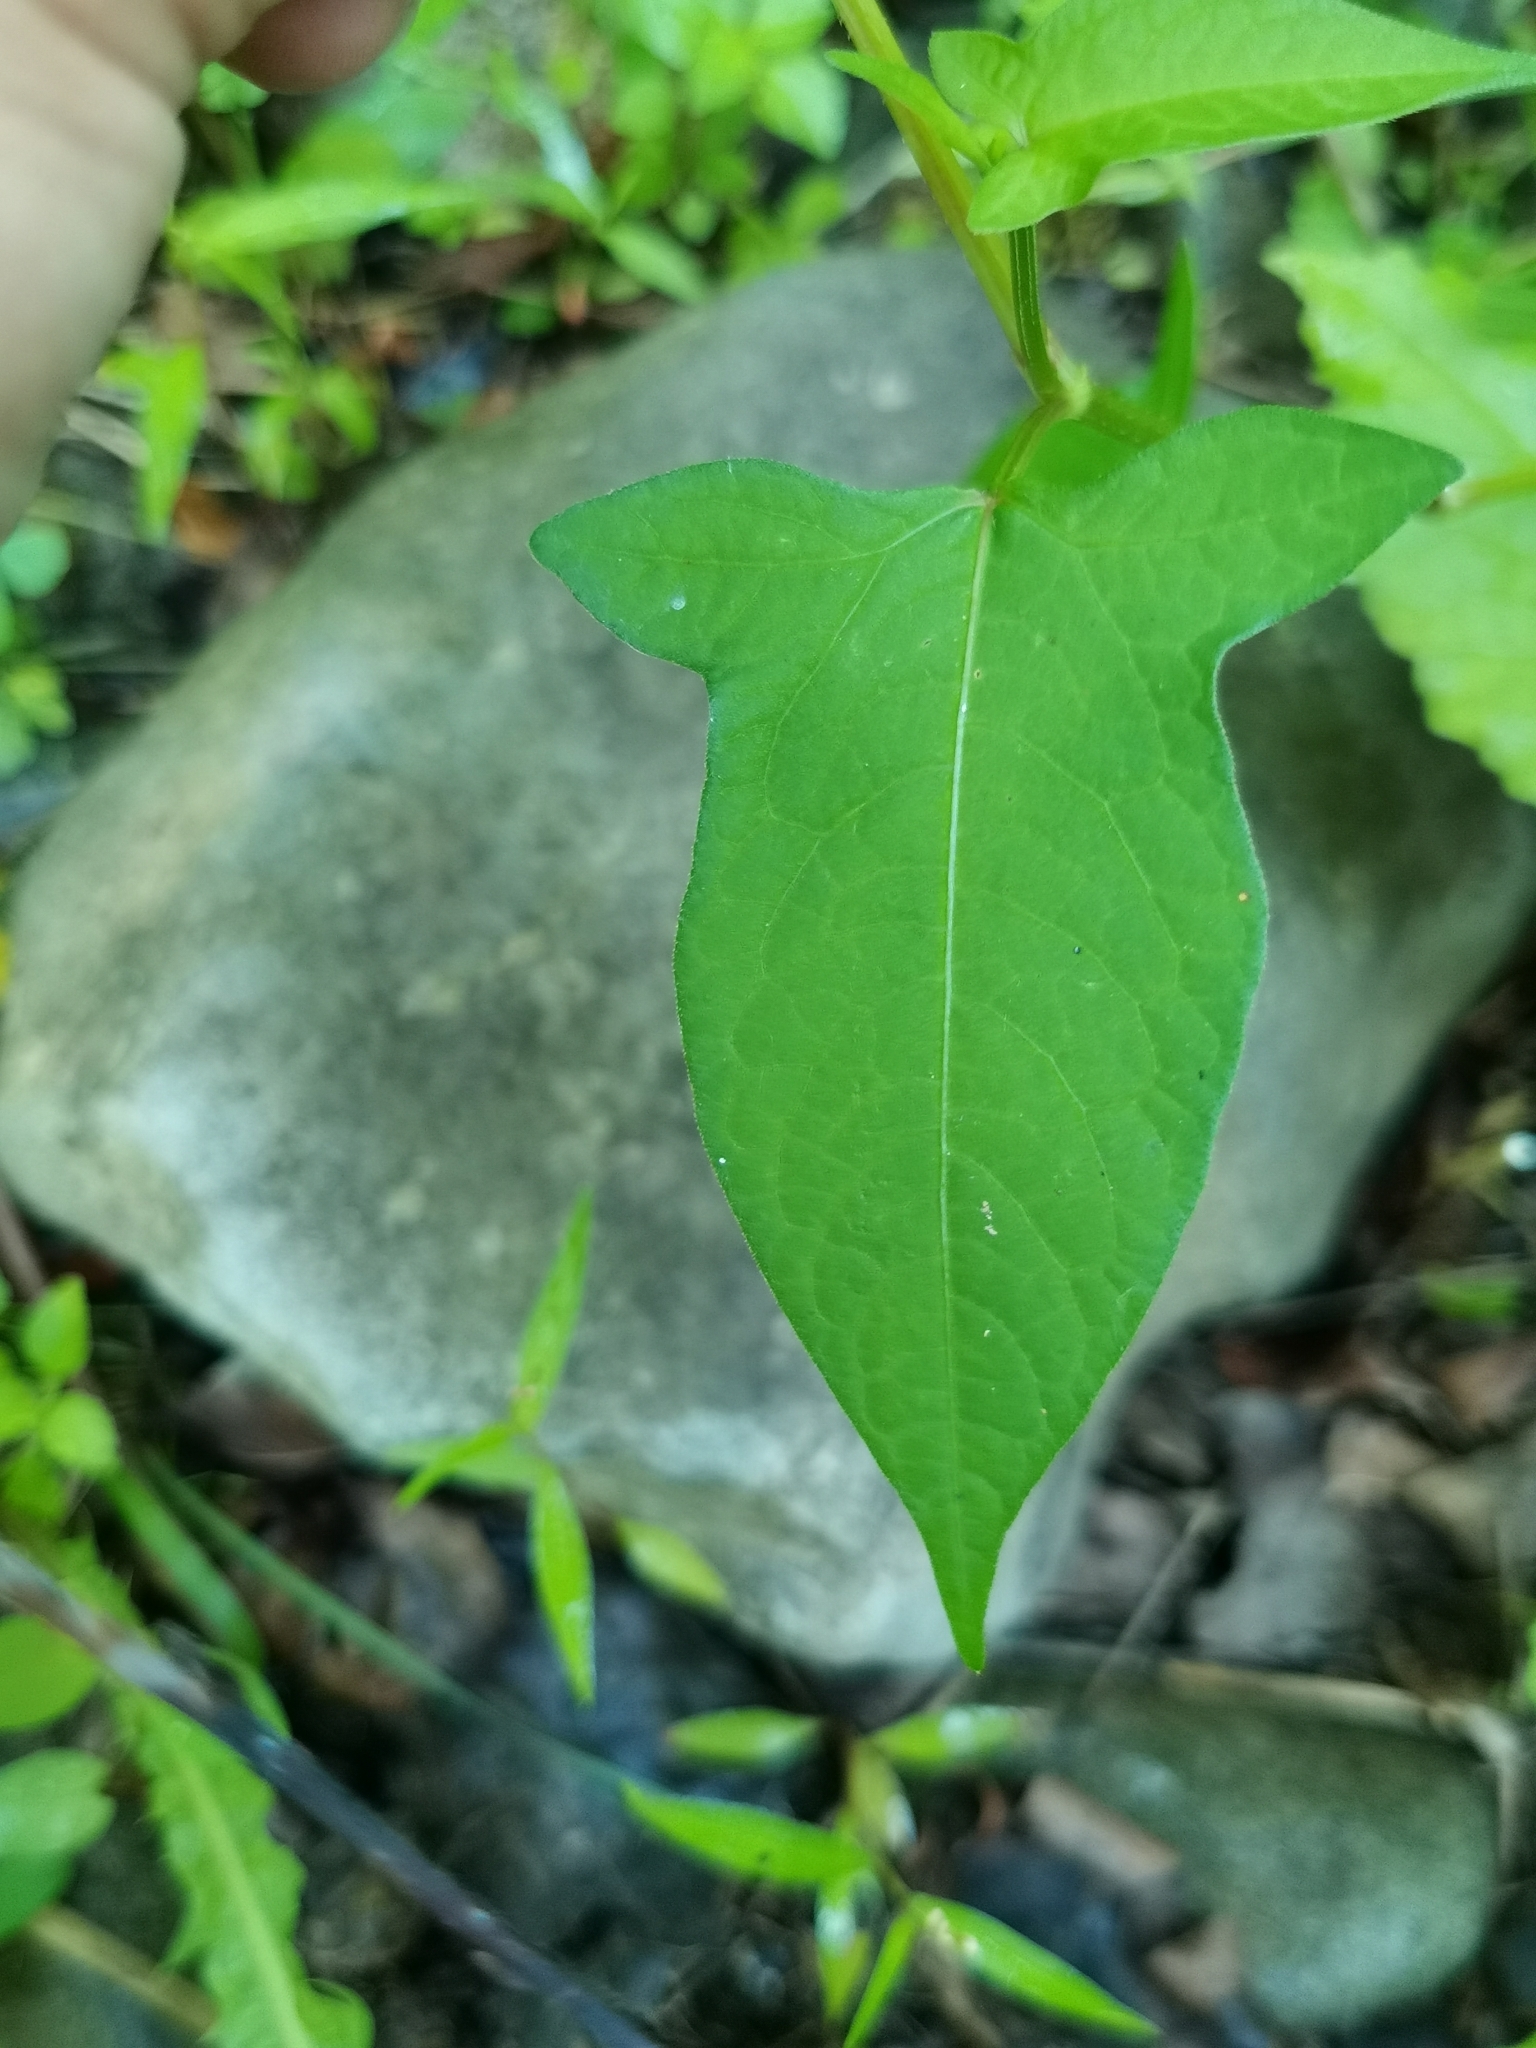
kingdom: Plantae
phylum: Tracheophyta
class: Magnoliopsida
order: Caryophyllales
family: Polygonaceae
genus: Persicaria
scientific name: Persicaria thunbergii
